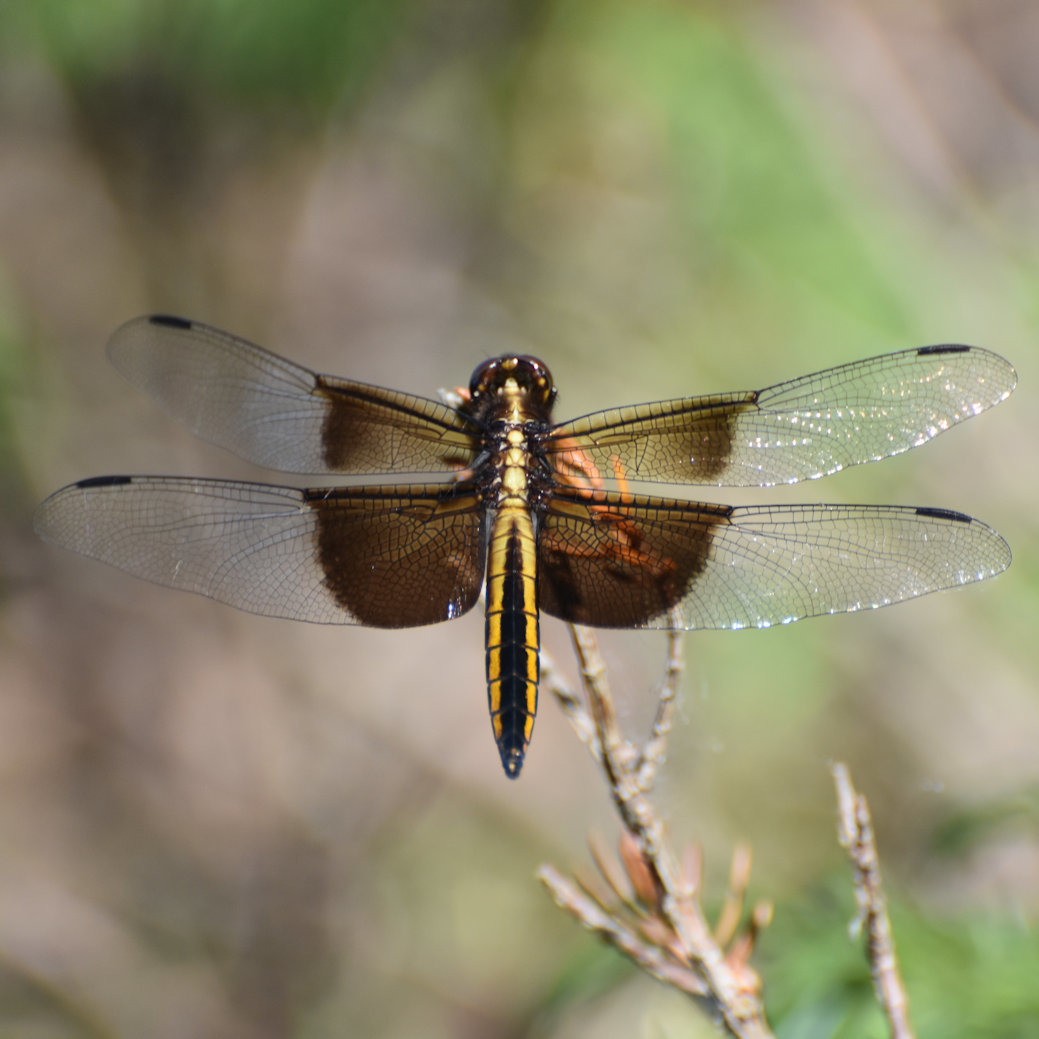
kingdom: Animalia
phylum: Arthropoda
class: Insecta
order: Odonata
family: Libellulidae
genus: Libellula
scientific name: Libellula luctuosa
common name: Widow skimmer
